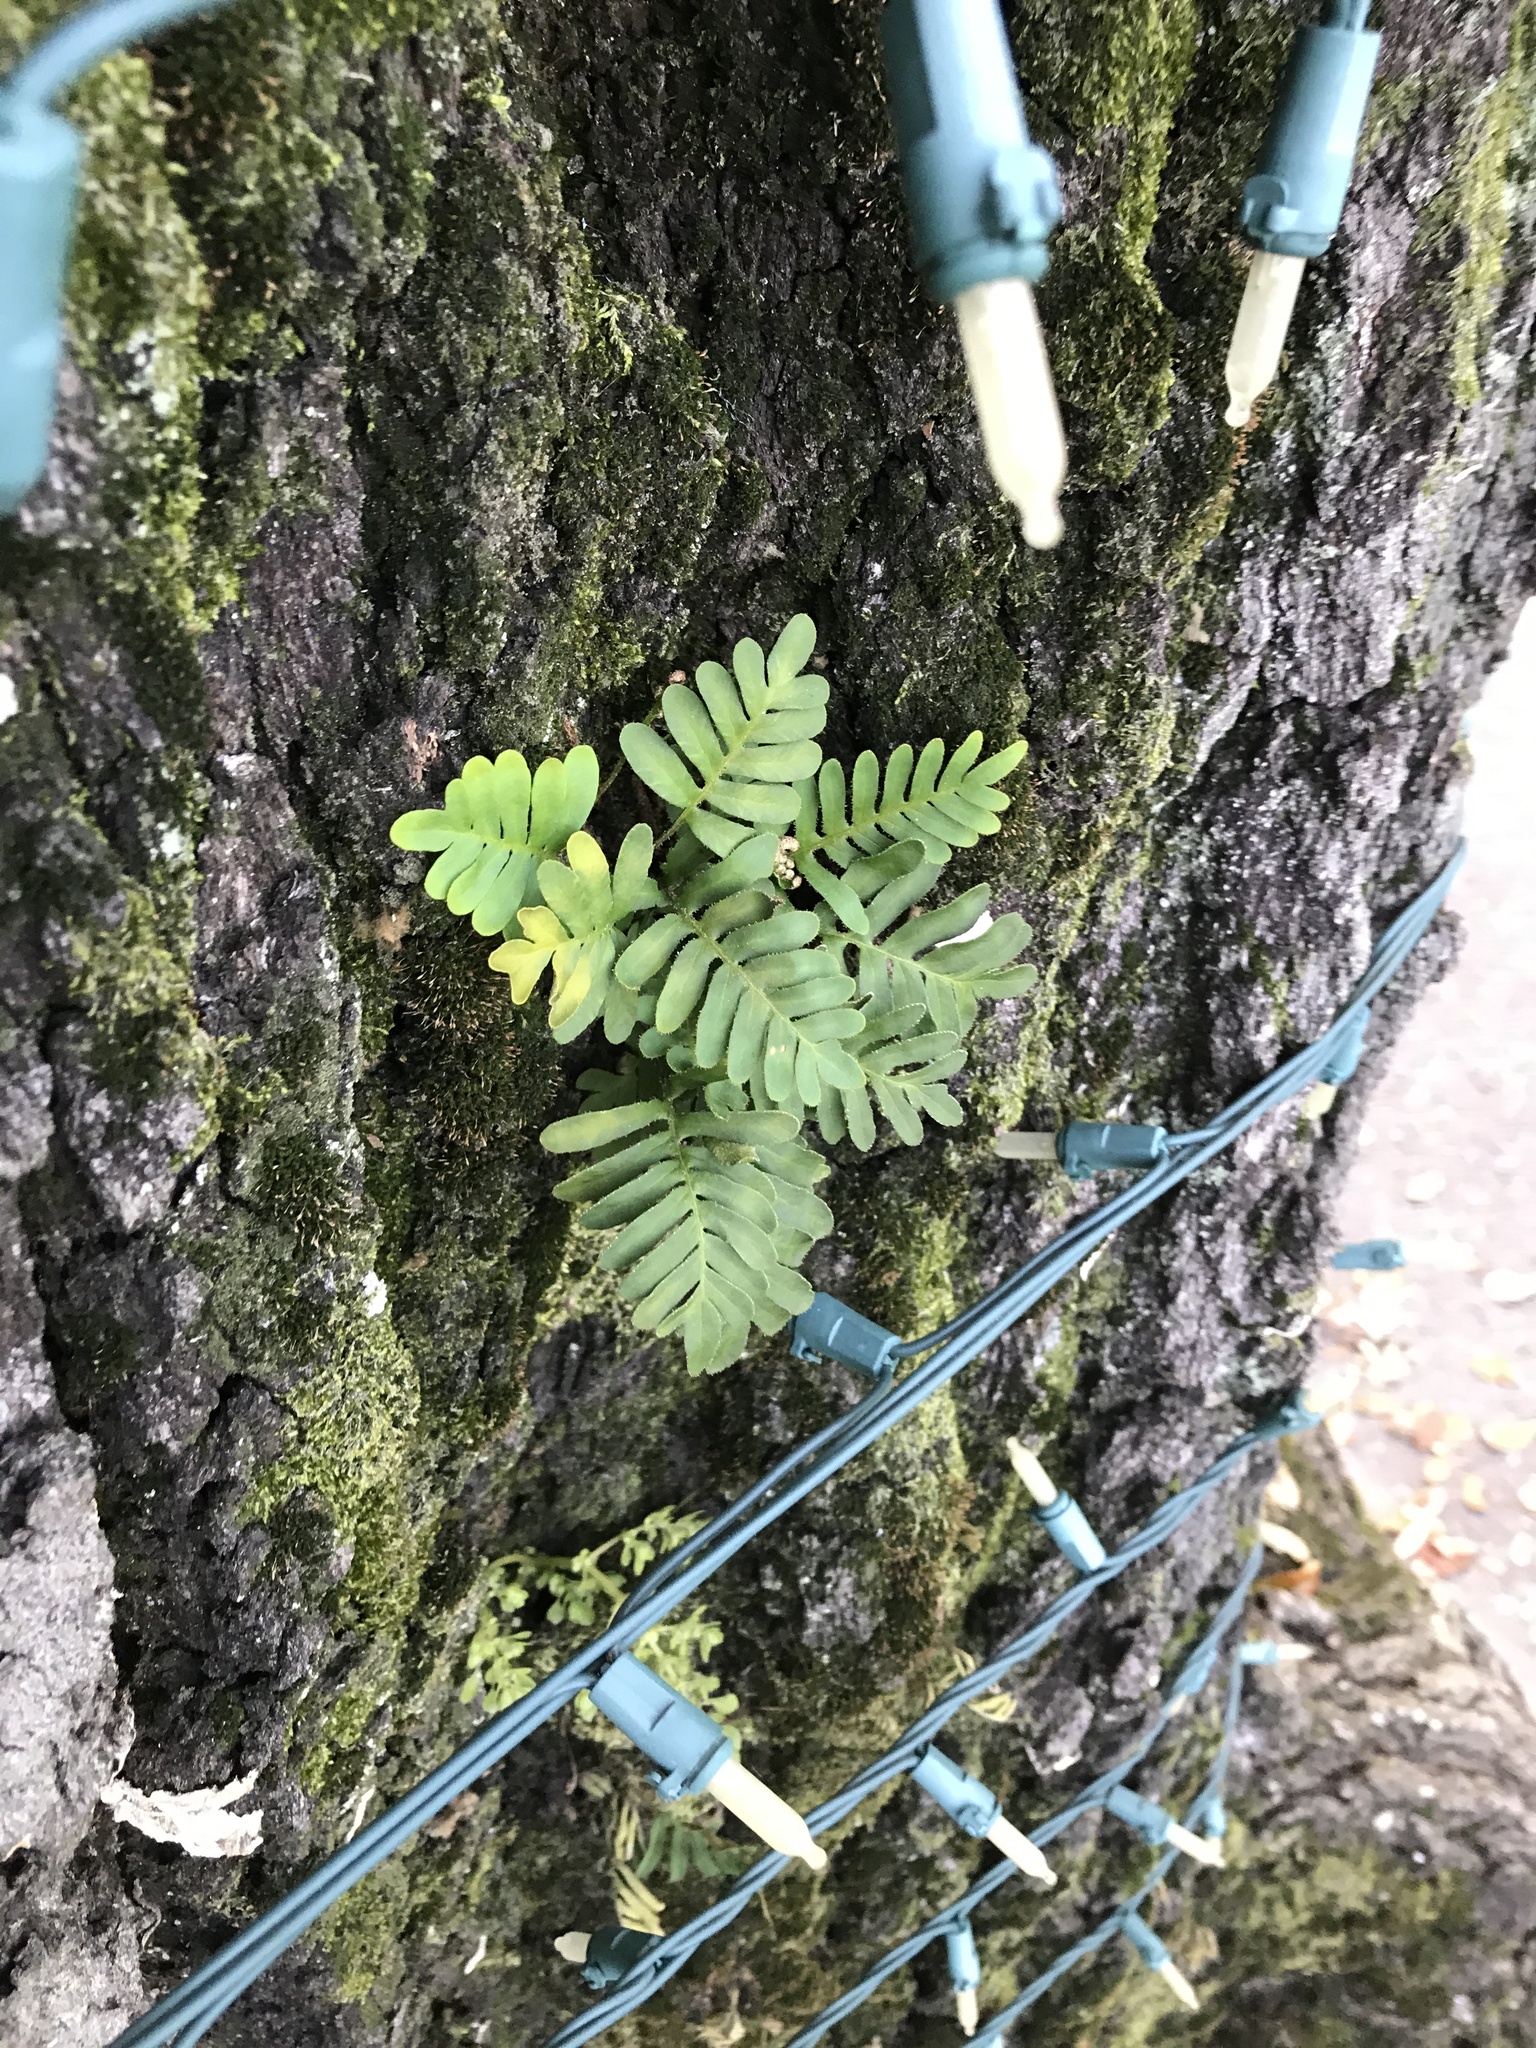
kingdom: Plantae
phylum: Tracheophyta
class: Polypodiopsida
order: Polypodiales
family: Polypodiaceae
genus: Pleopeltis
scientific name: Pleopeltis michauxiana
